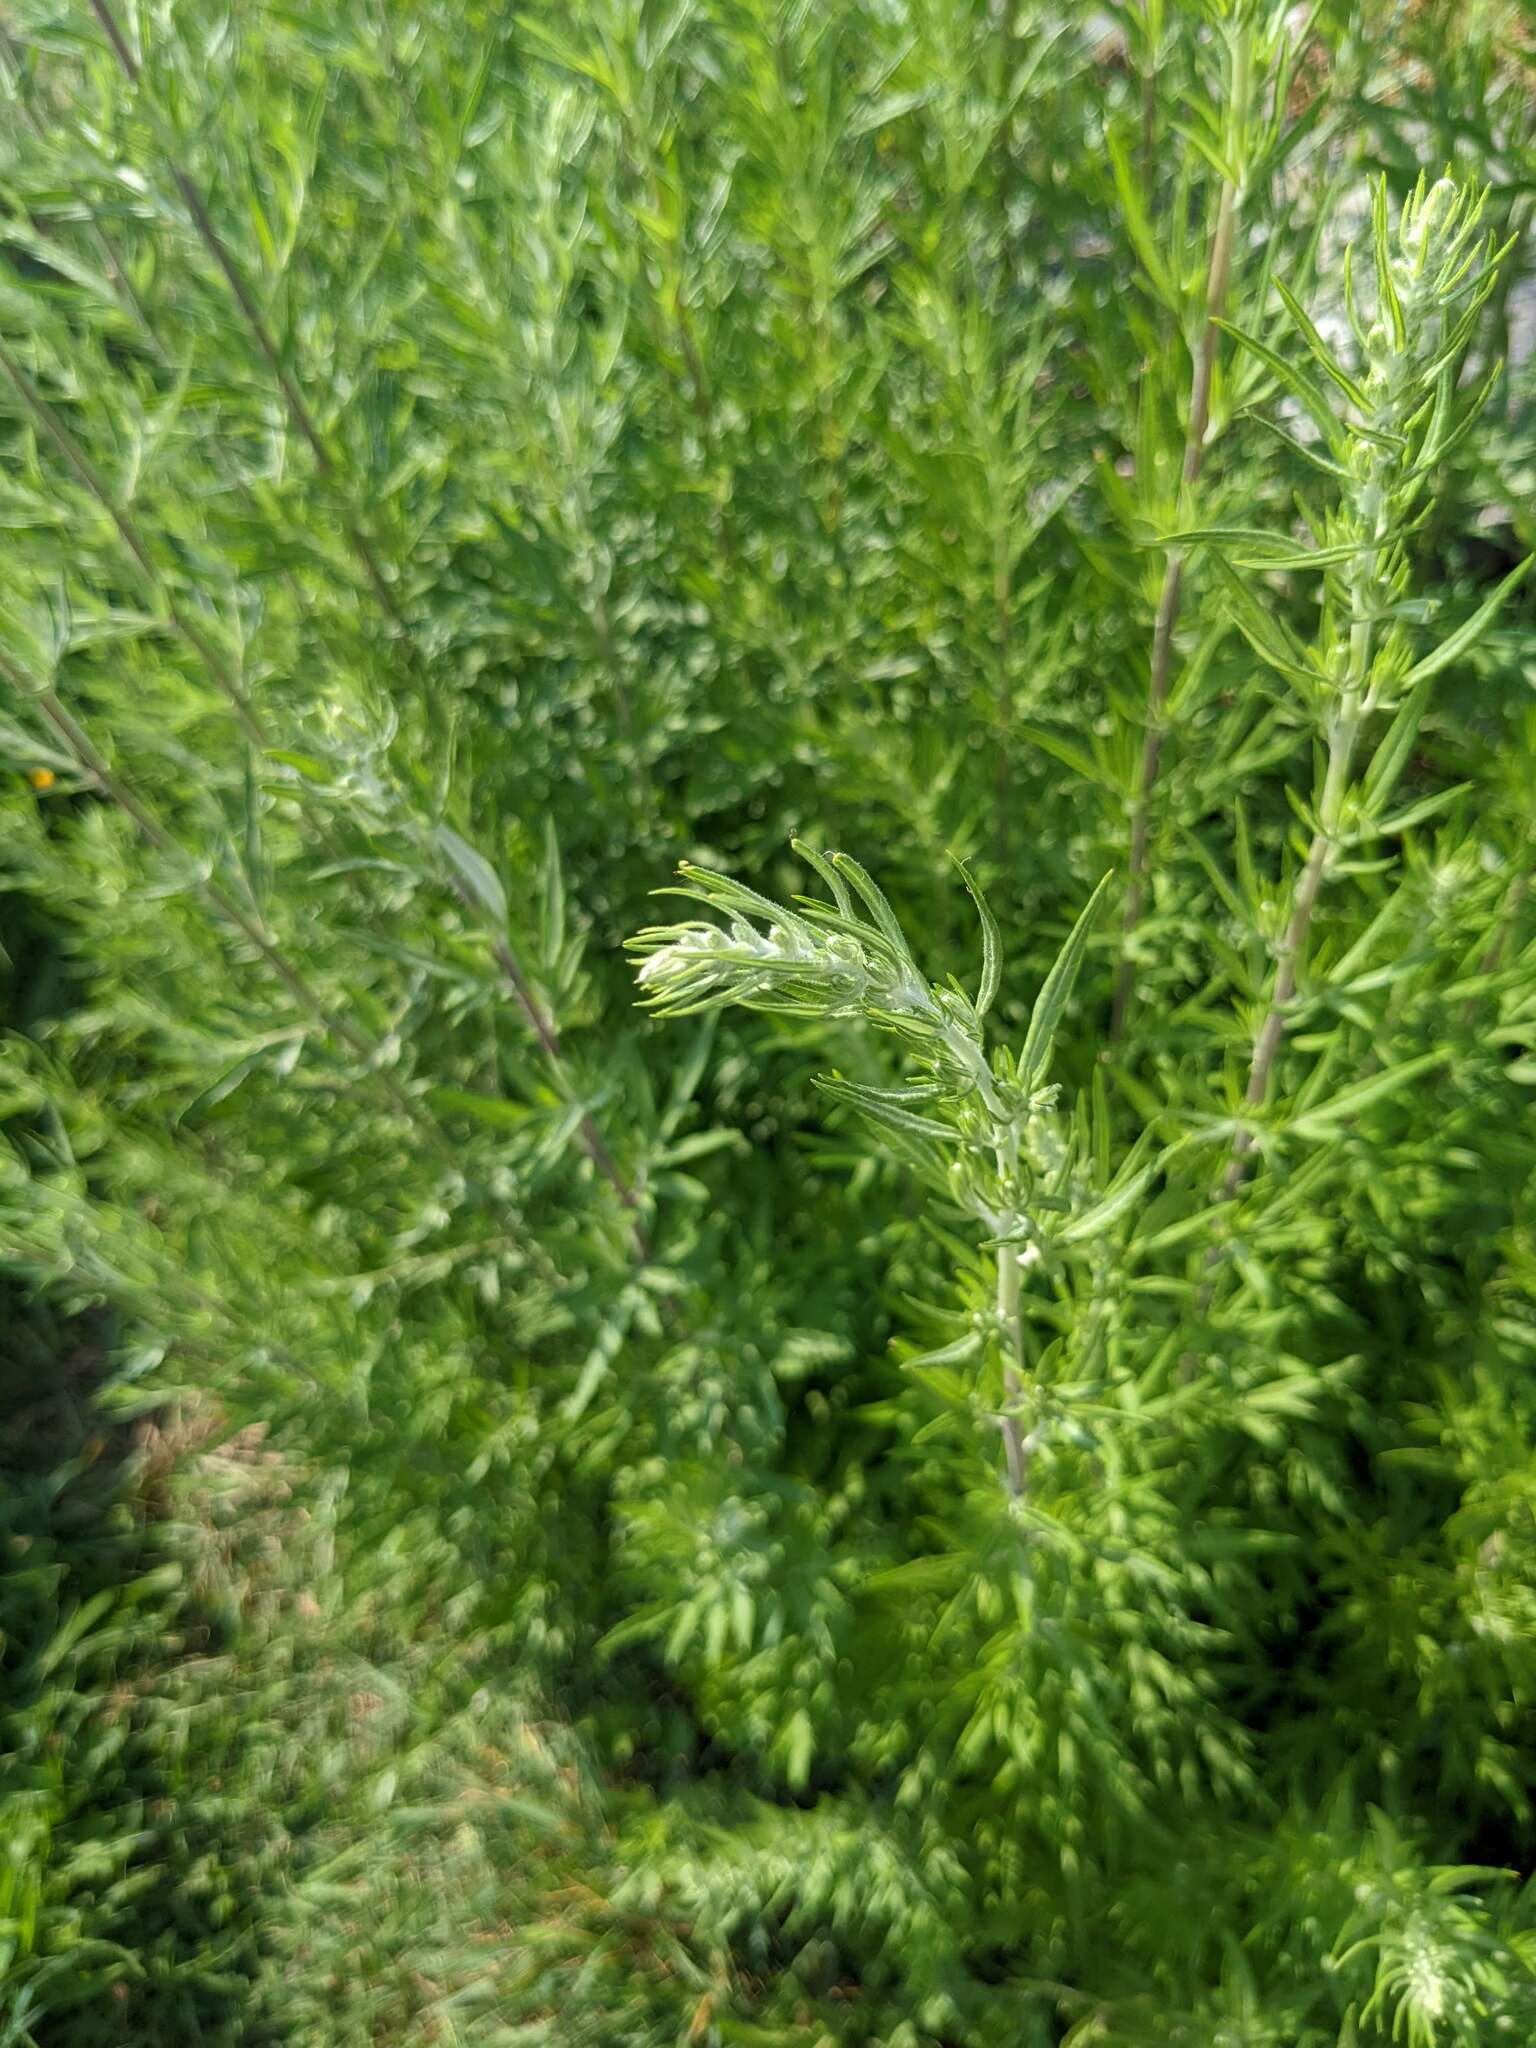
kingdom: Plantae
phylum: Tracheophyta
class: Magnoliopsida
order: Asterales
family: Asteraceae
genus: Artemisia
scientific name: Artemisia vulgaris
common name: Mugwort
